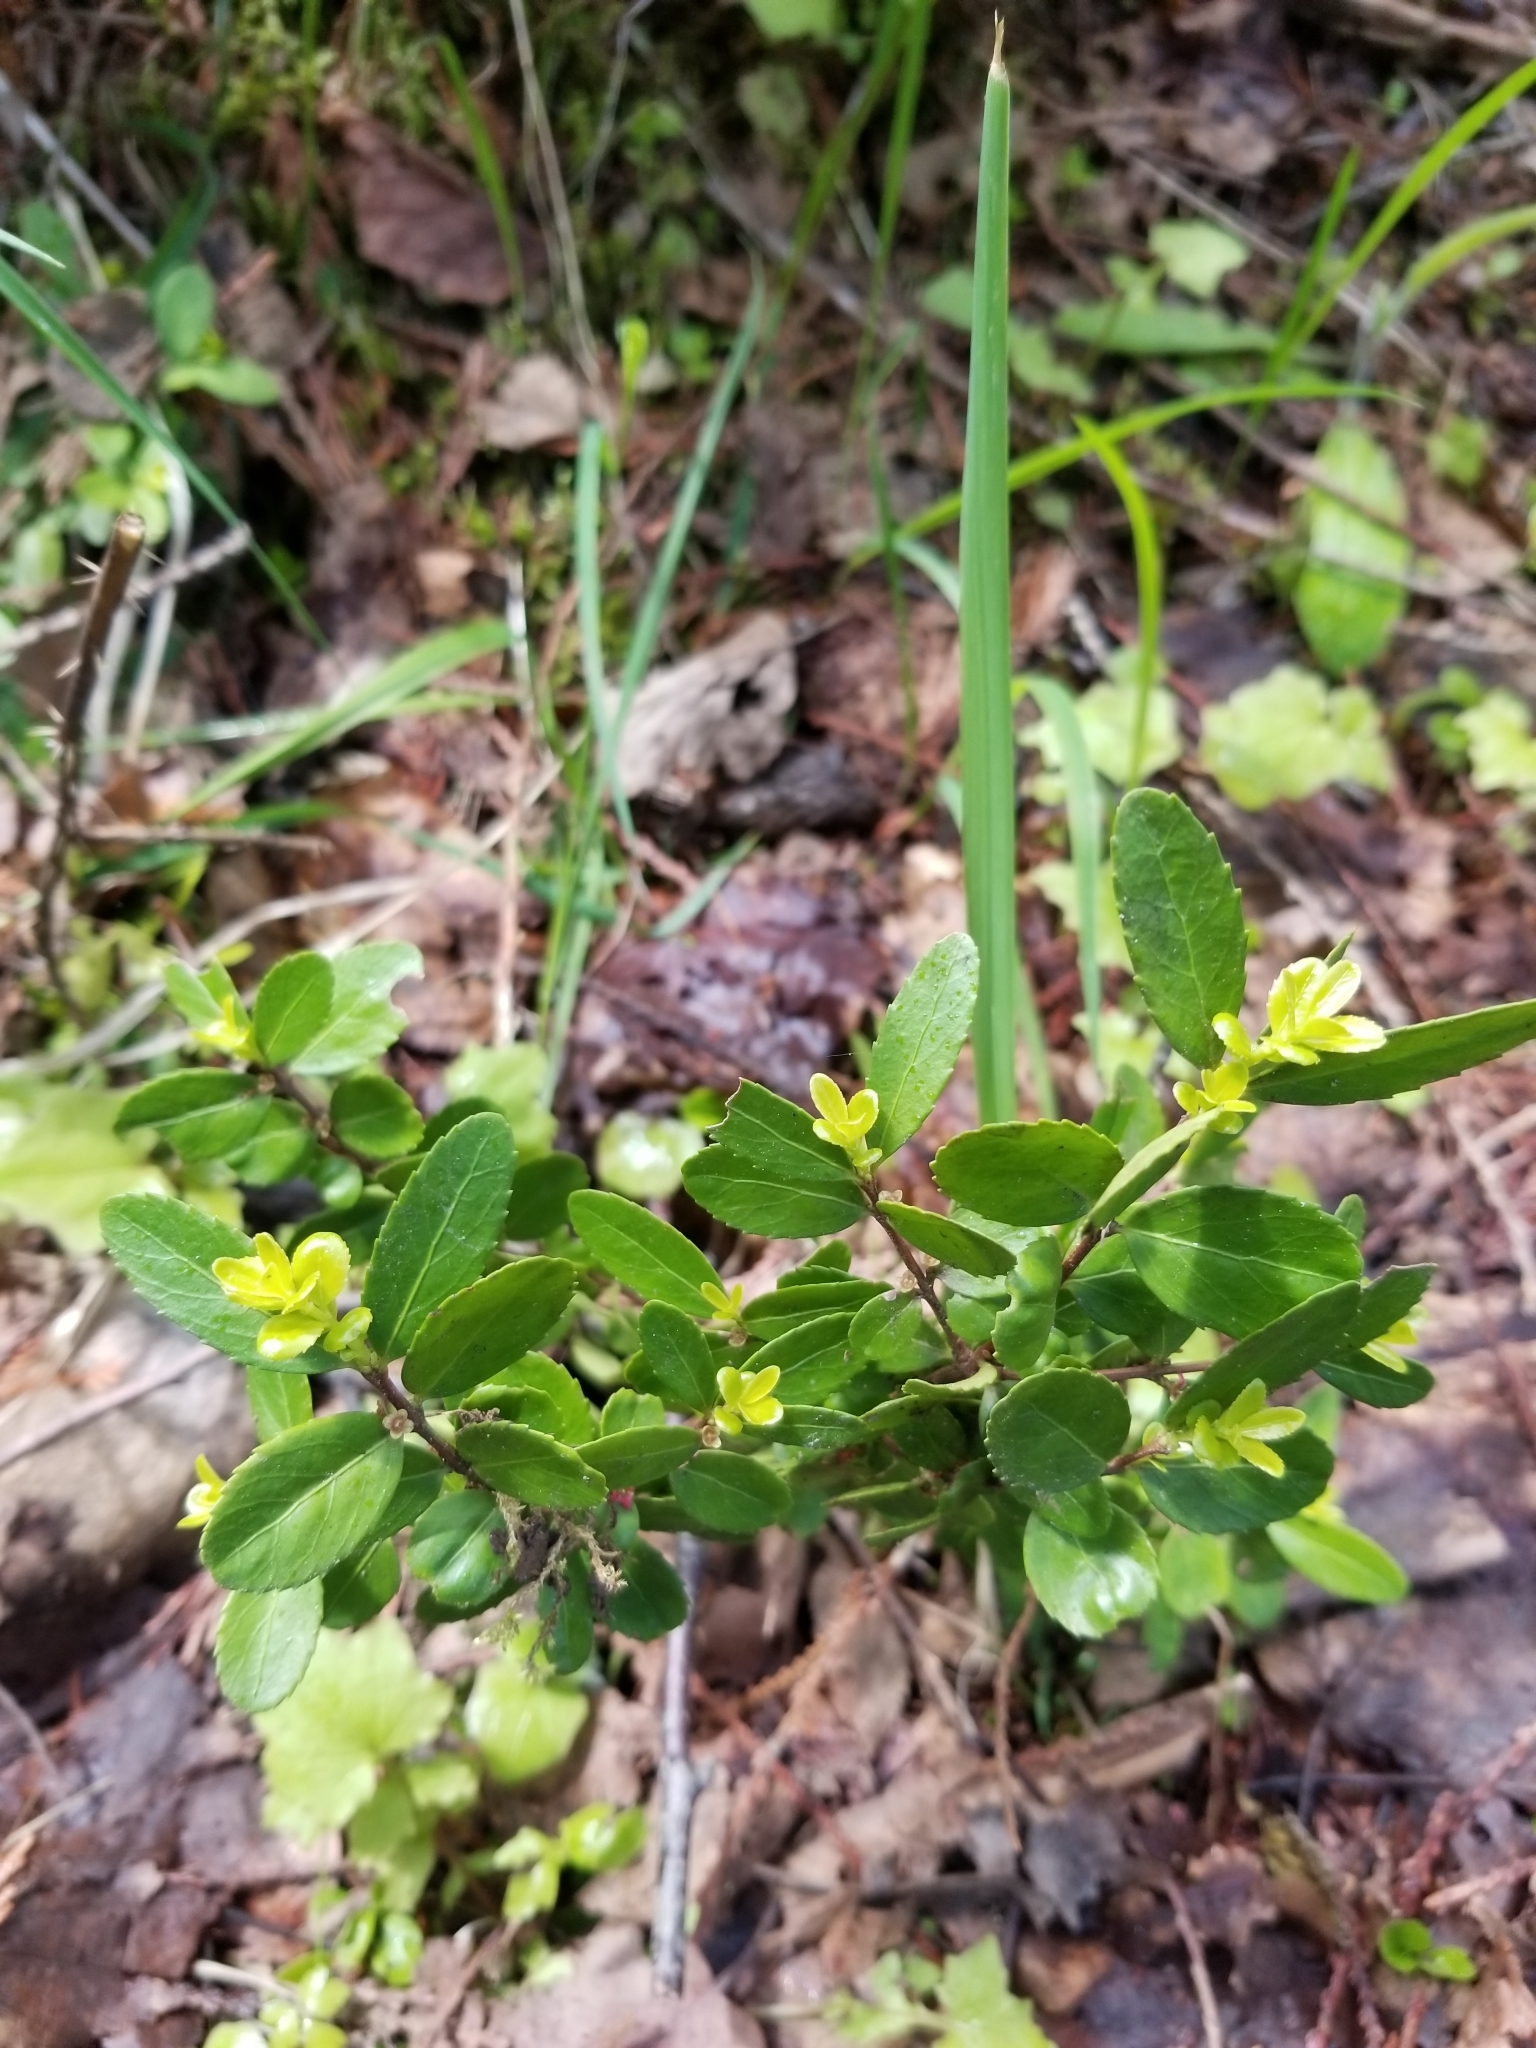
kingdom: Plantae
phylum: Tracheophyta
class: Magnoliopsida
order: Celastrales
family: Celastraceae
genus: Paxistima
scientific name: Paxistima myrsinites
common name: Mountain-lover
